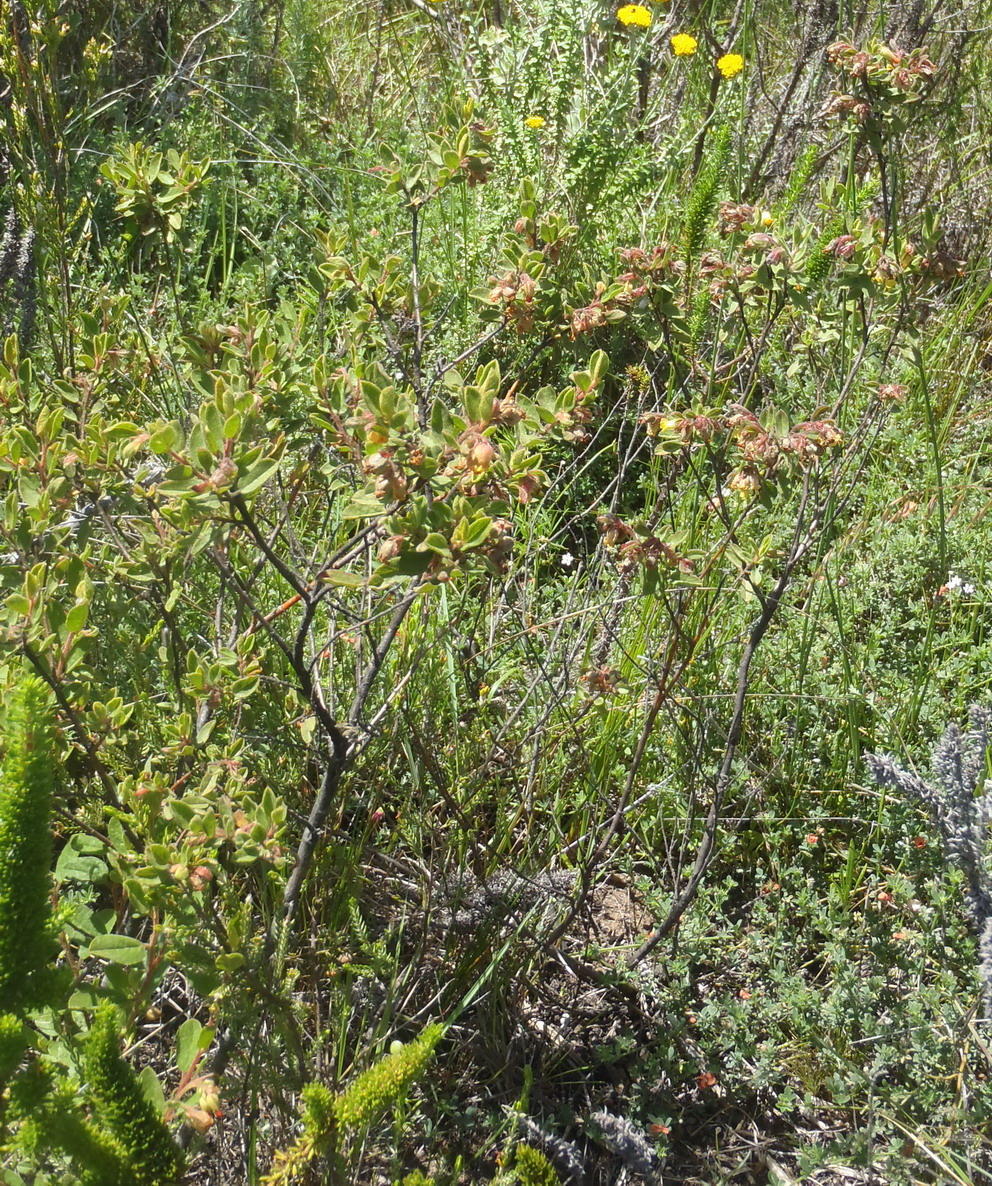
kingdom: Plantae
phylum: Tracheophyta
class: Magnoliopsida
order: Malvales
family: Malvaceae
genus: Hermannia
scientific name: Hermannia salviifolia
